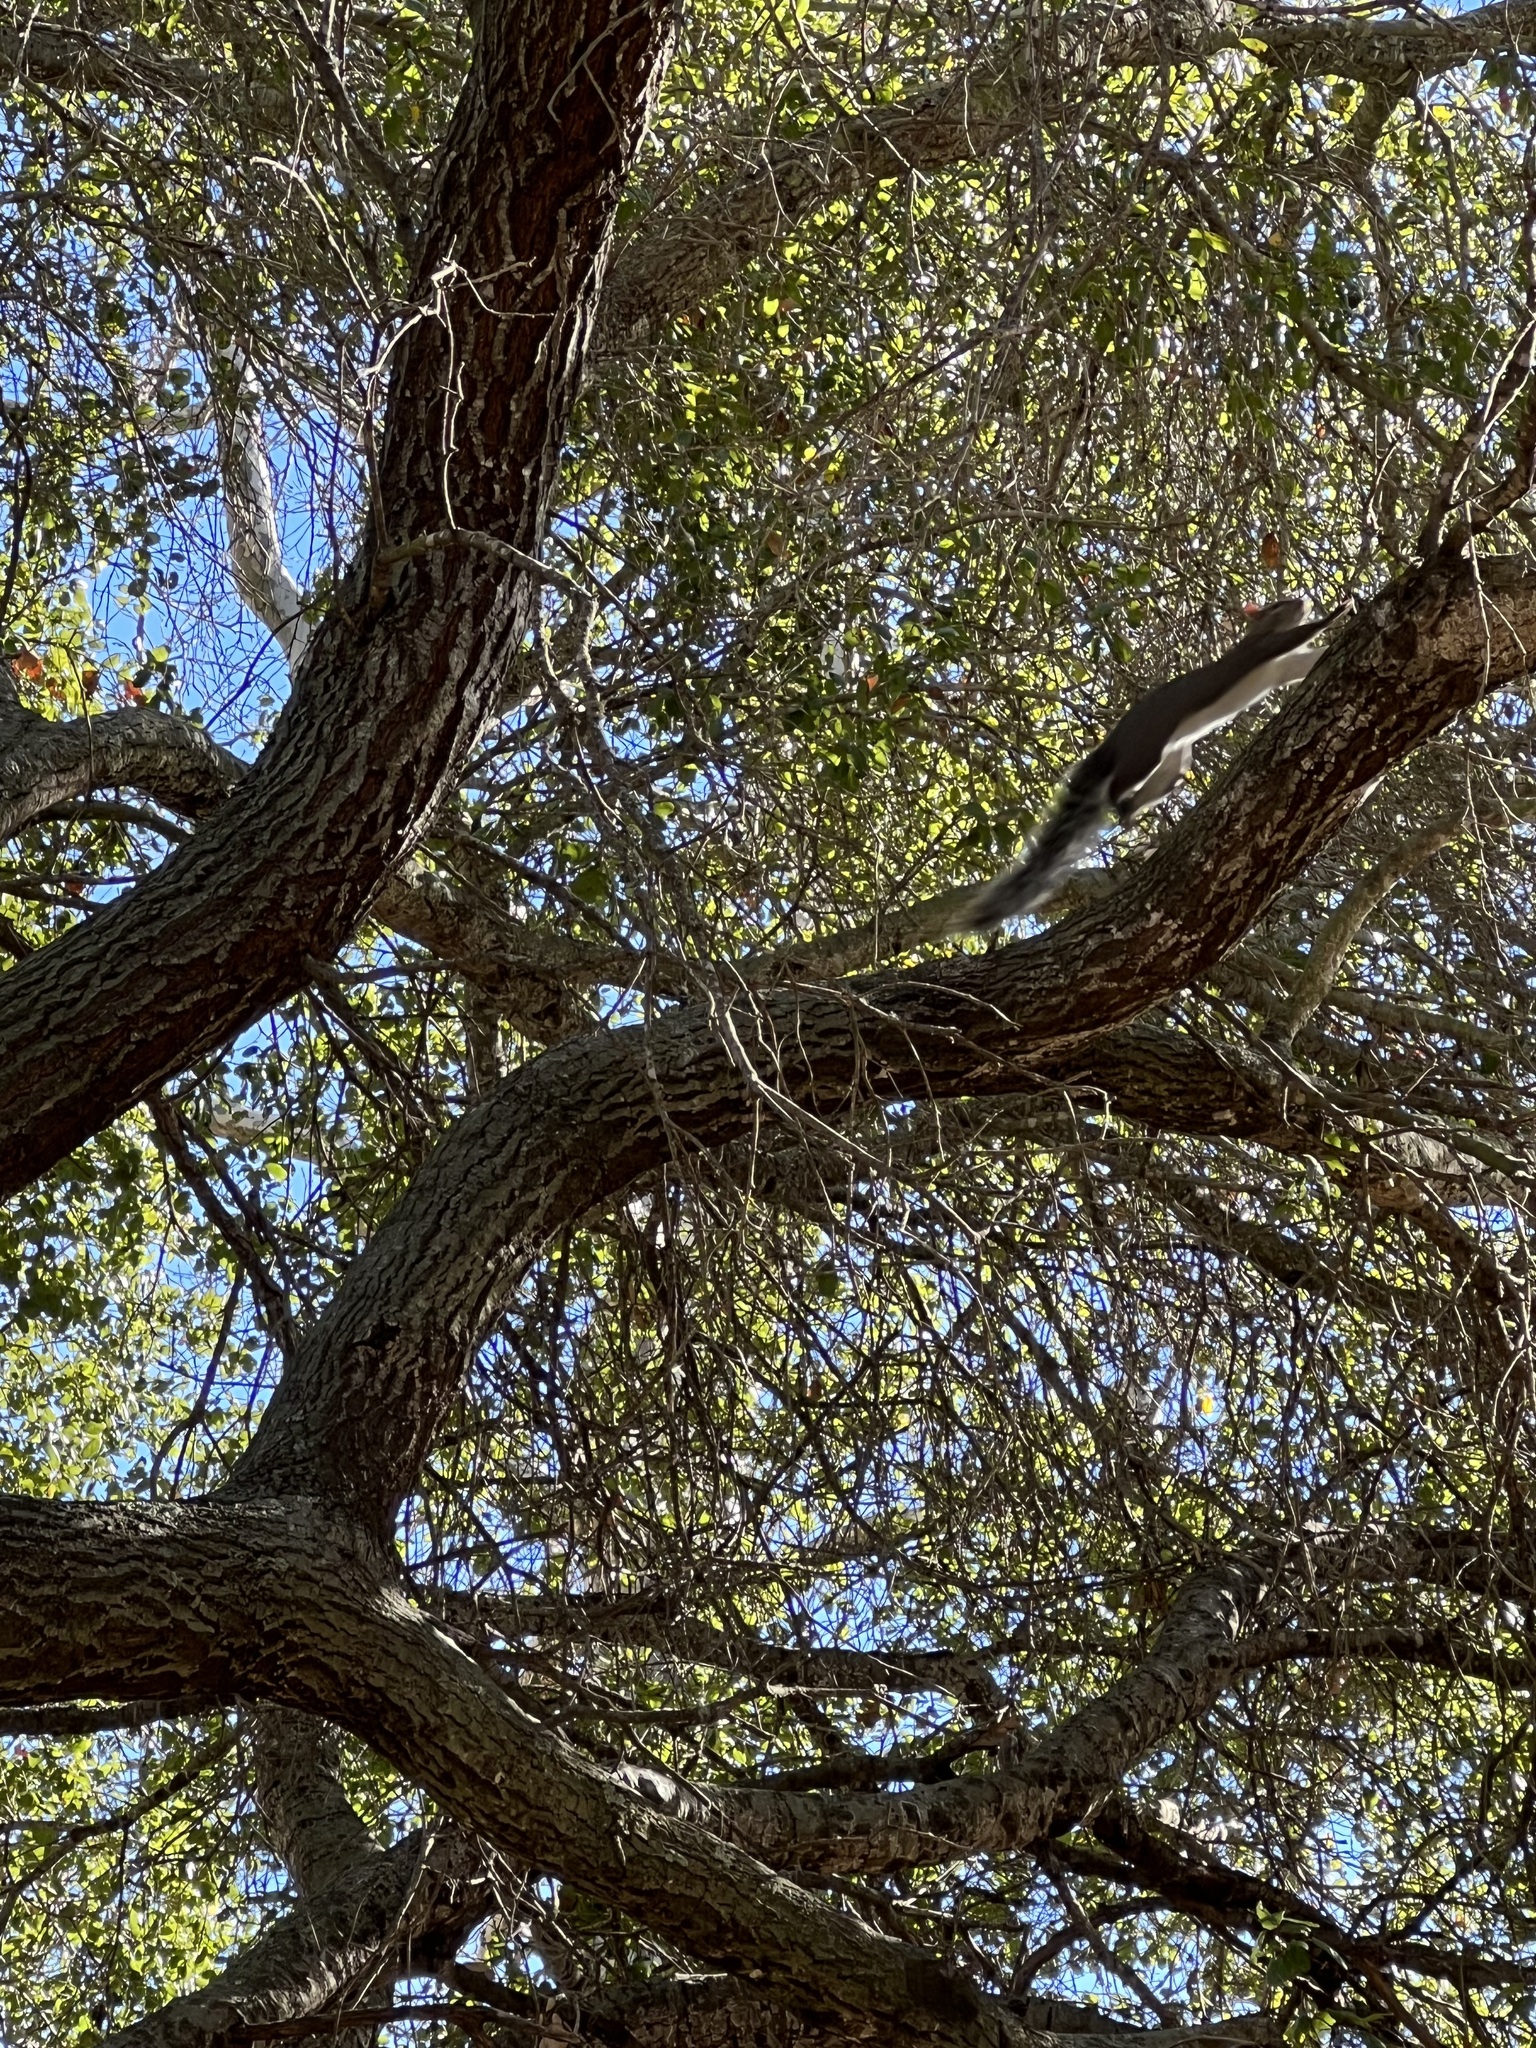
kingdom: Animalia
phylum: Chordata
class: Mammalia
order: Rodentia
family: Sciuridae
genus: Sciurus
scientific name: Sciurus griseus
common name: Western gray squirrel
